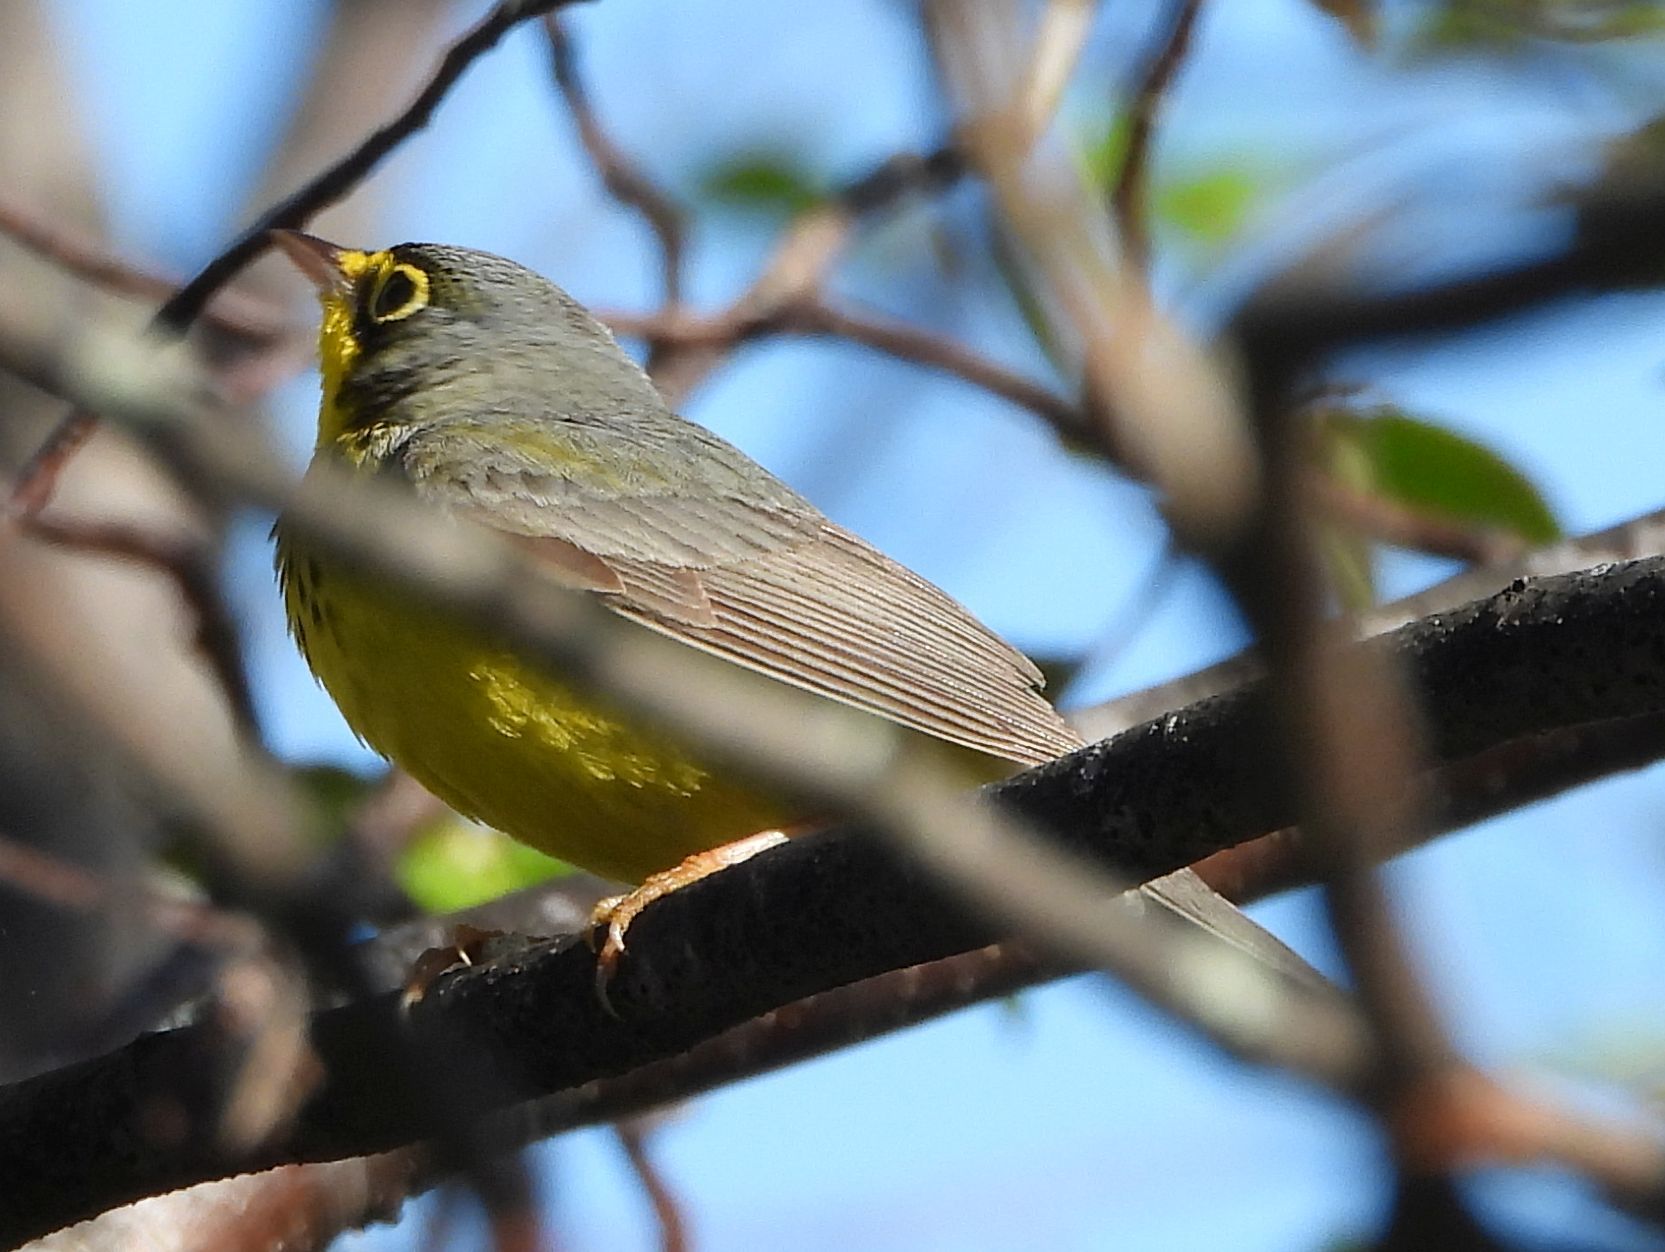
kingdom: Animalia
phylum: Chordata
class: Aves
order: Passeriformes
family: Parulidae
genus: Cardellina
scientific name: Cardellina canadensis
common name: Canada warbler
